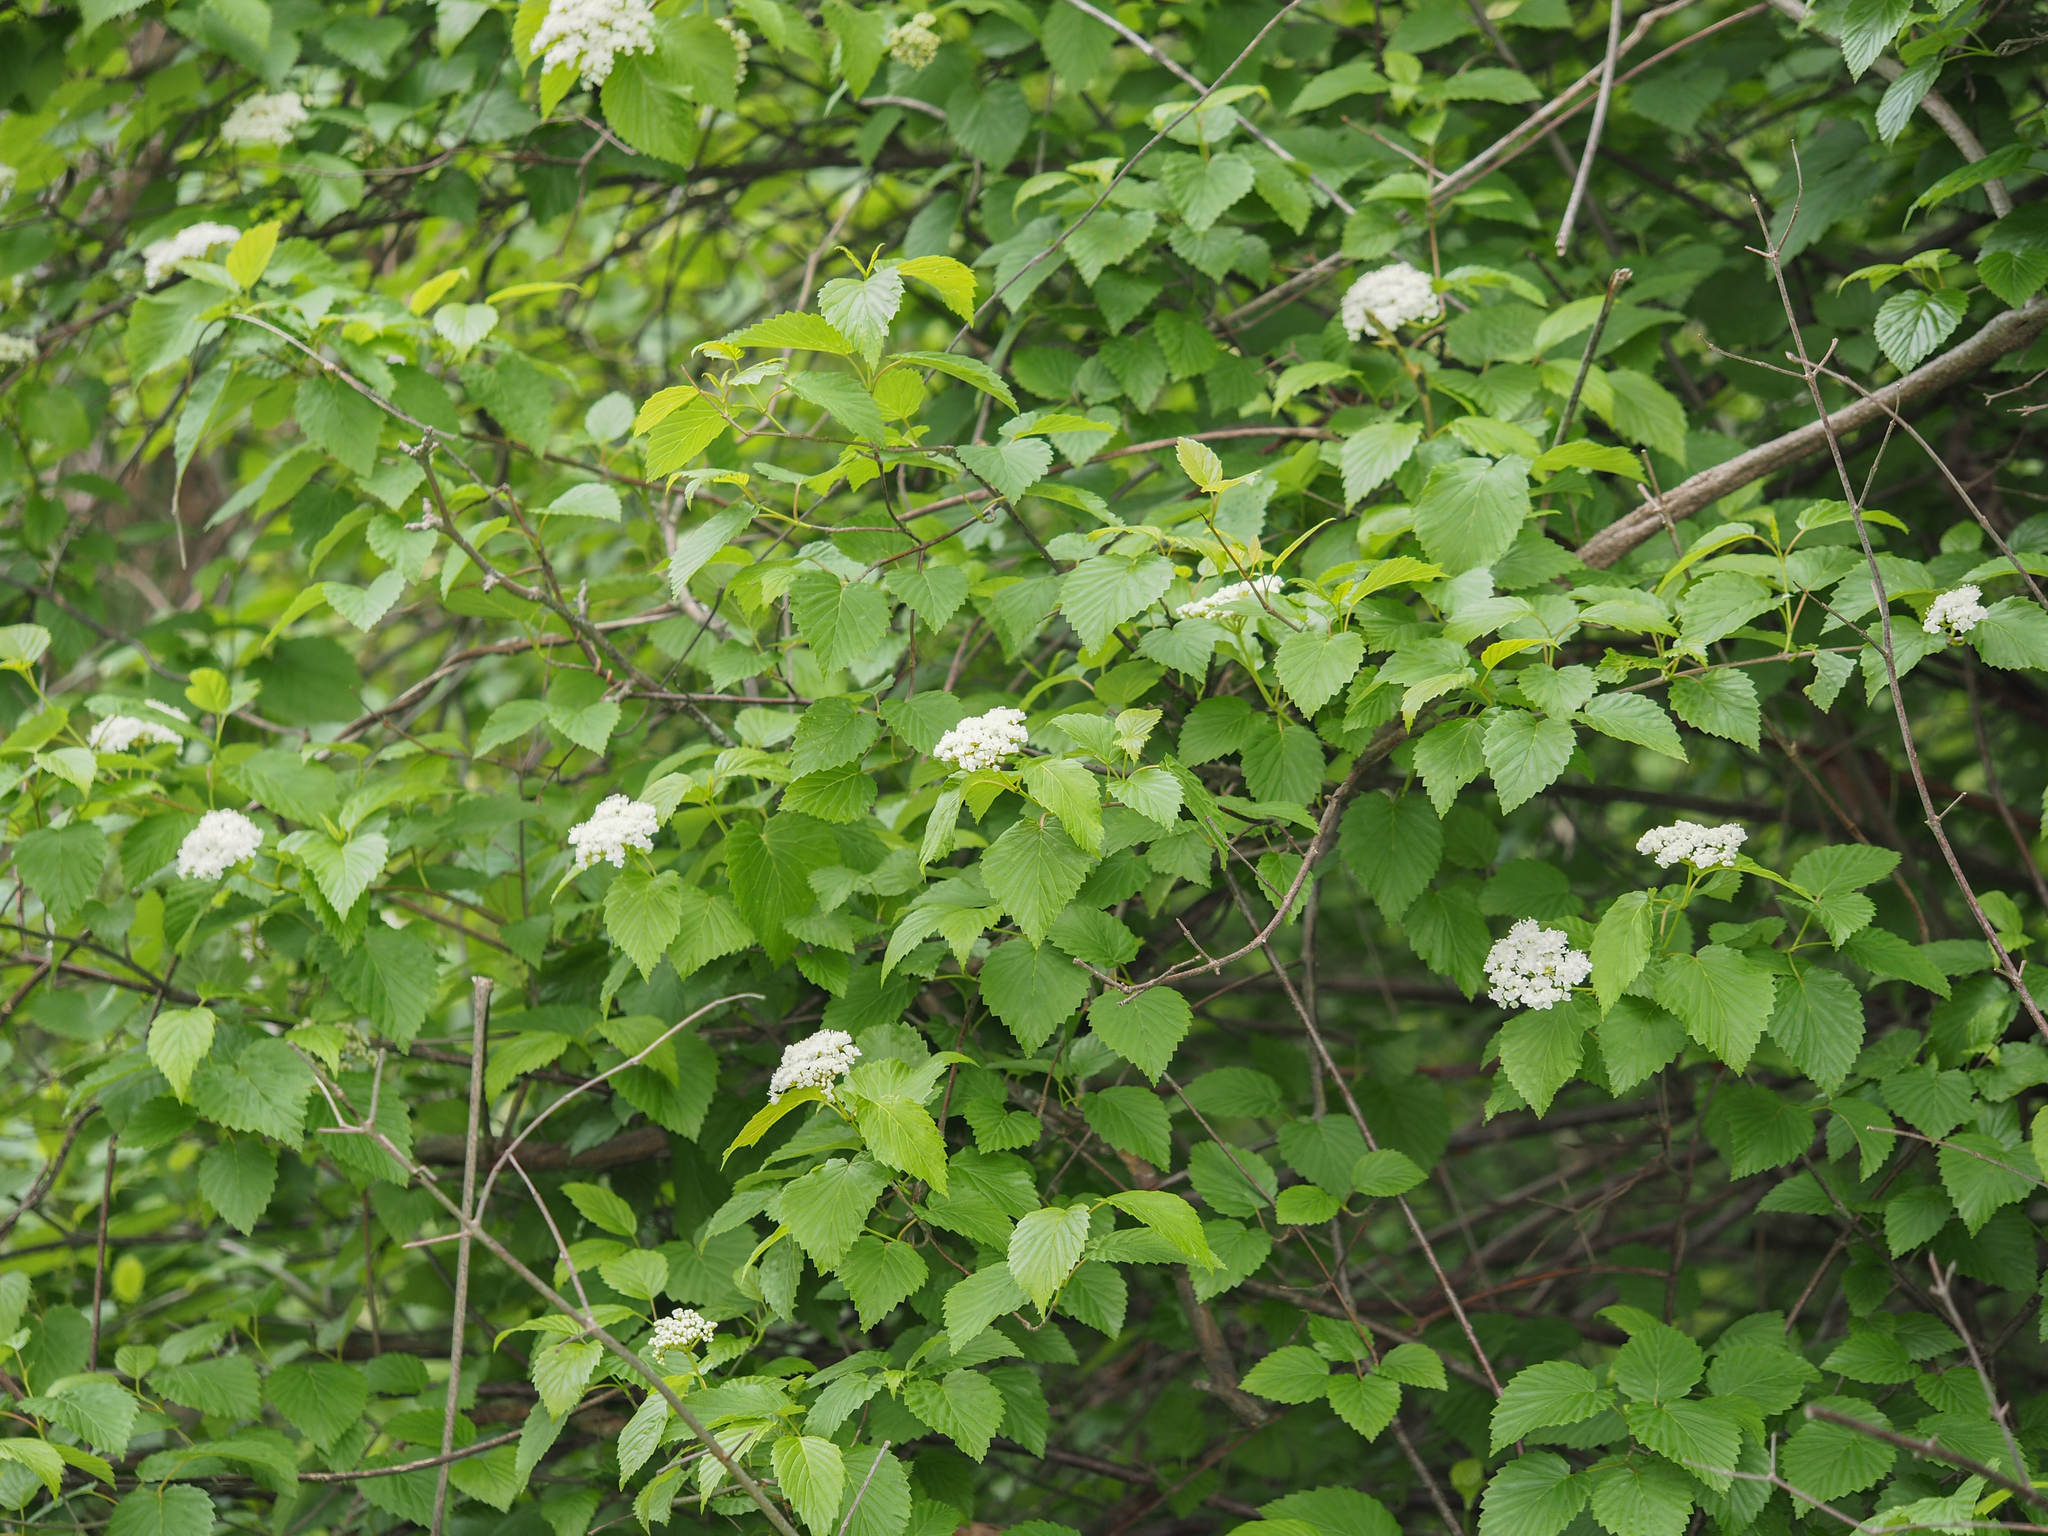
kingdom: Plantae
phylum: Tracheophyta
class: Magnoliopsida
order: Dipsacales
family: Viburnaceae
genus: Viburnum
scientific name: Viburnum dentatum
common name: Arrow-wood
